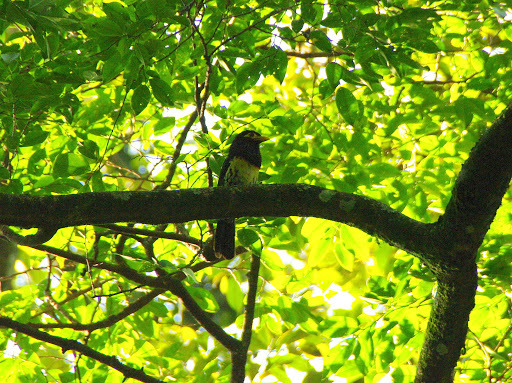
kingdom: Animalia
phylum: Chordata
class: Aves
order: Piciformes
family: Lybiidae
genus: Trachyphonus
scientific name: Trachyphonus purpuratus
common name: Yellow-billed barbet
